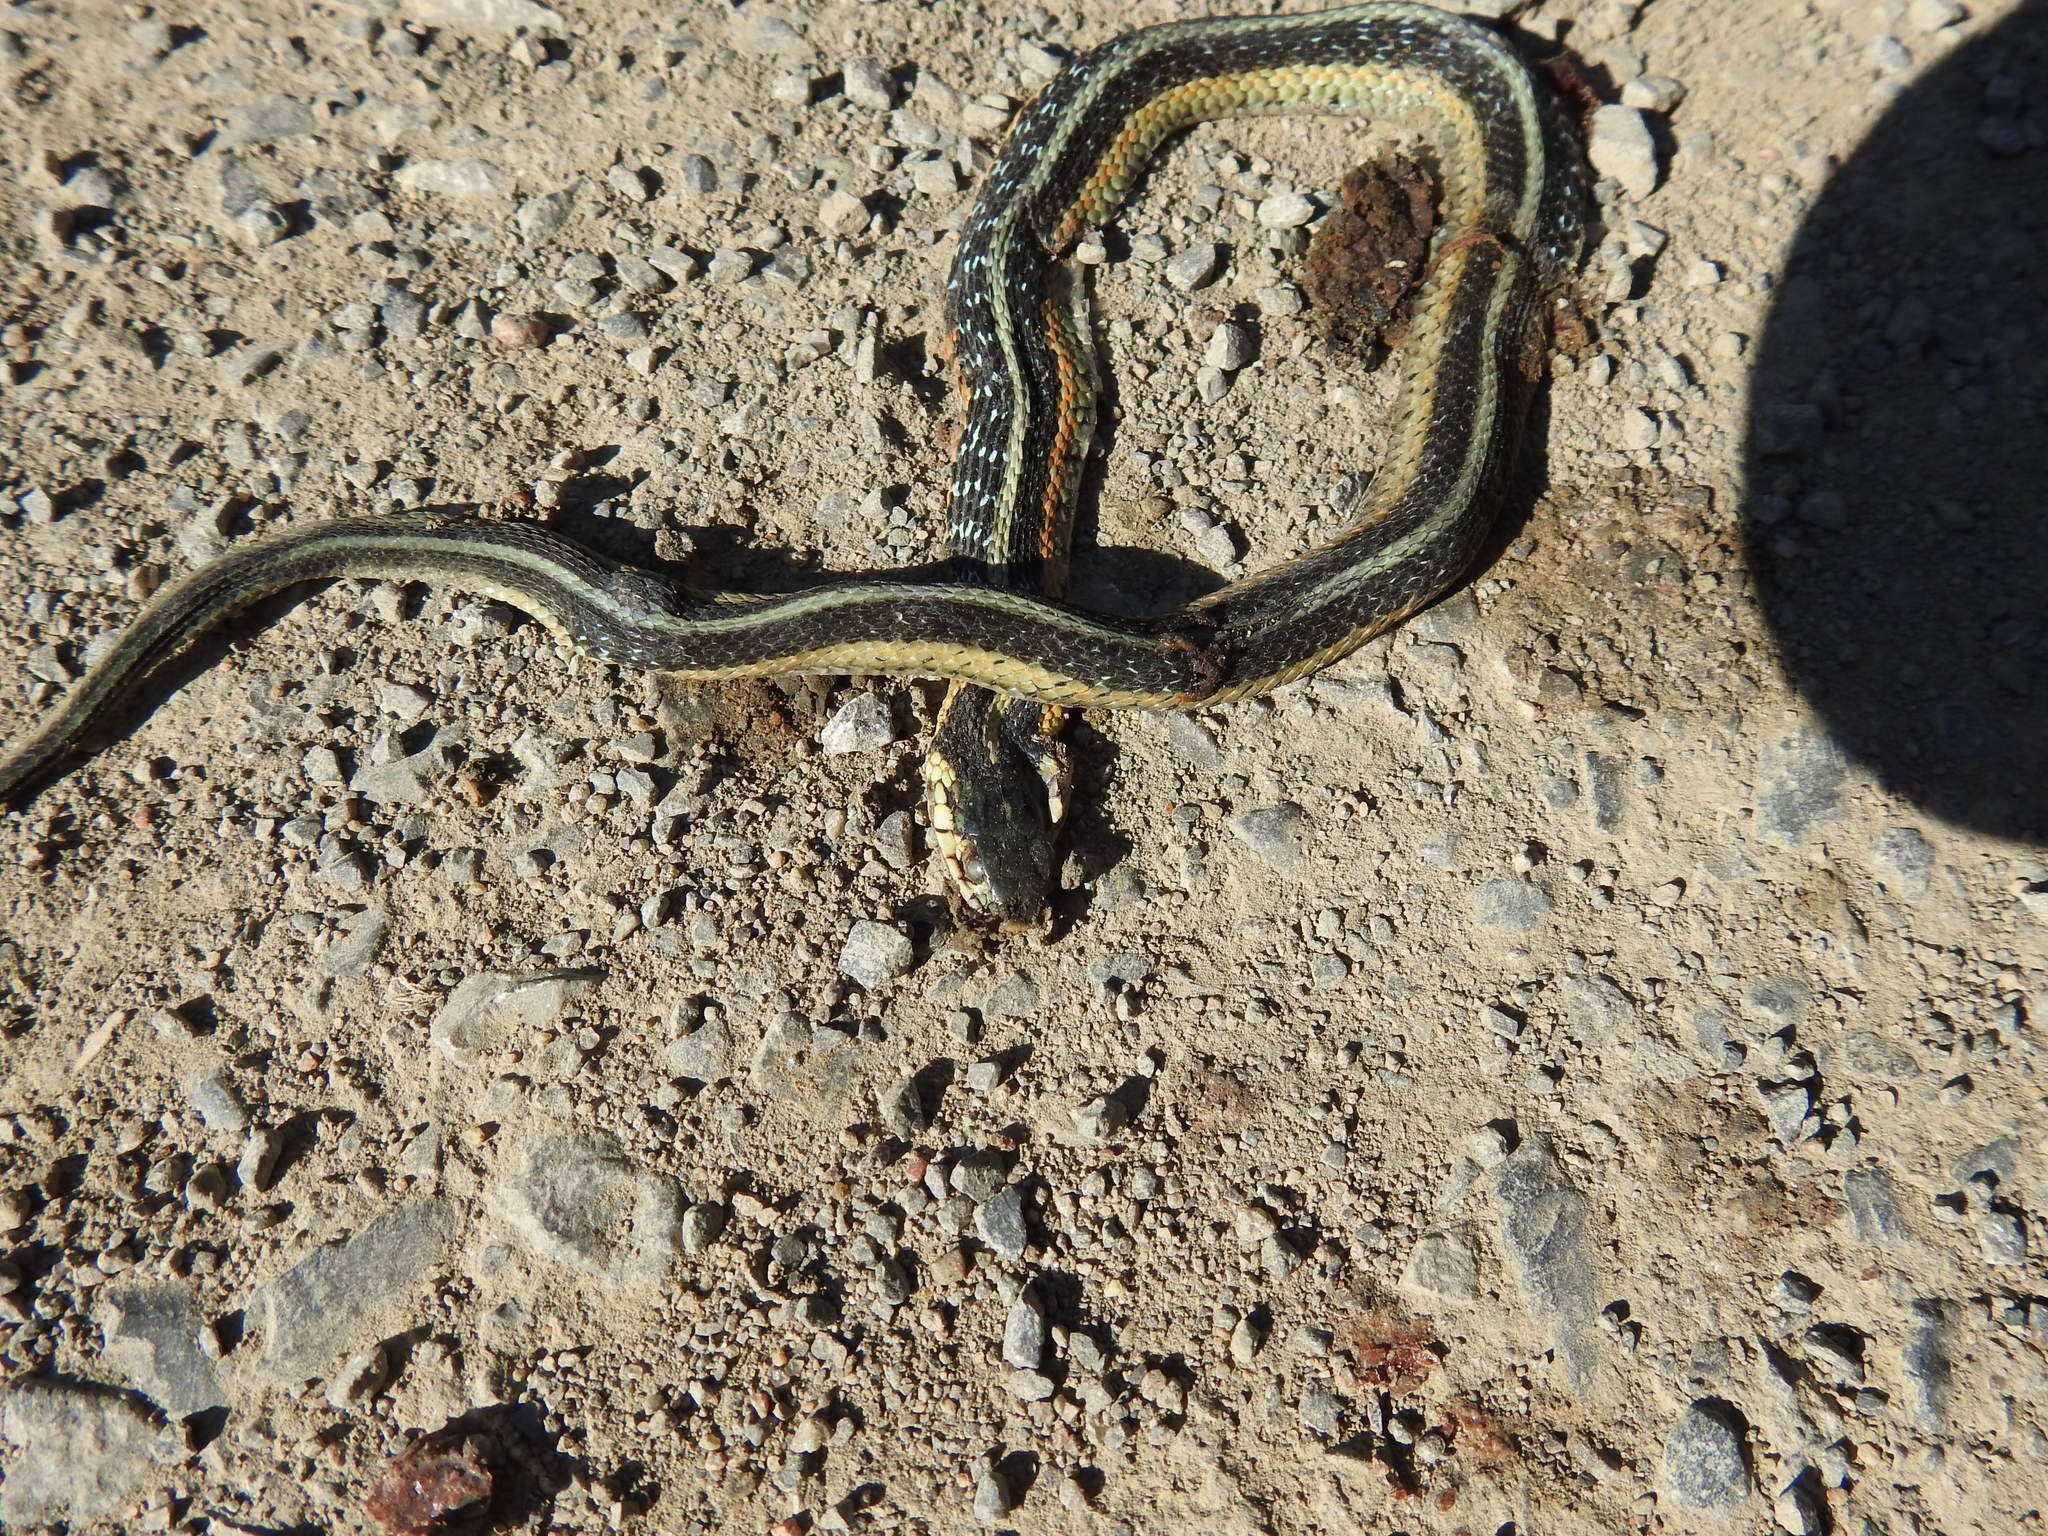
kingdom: Animalia
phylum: Chordata
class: Squamata
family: Colubridae
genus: Thamnophis
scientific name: Thamnophis sirtalis
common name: Common garter snake
